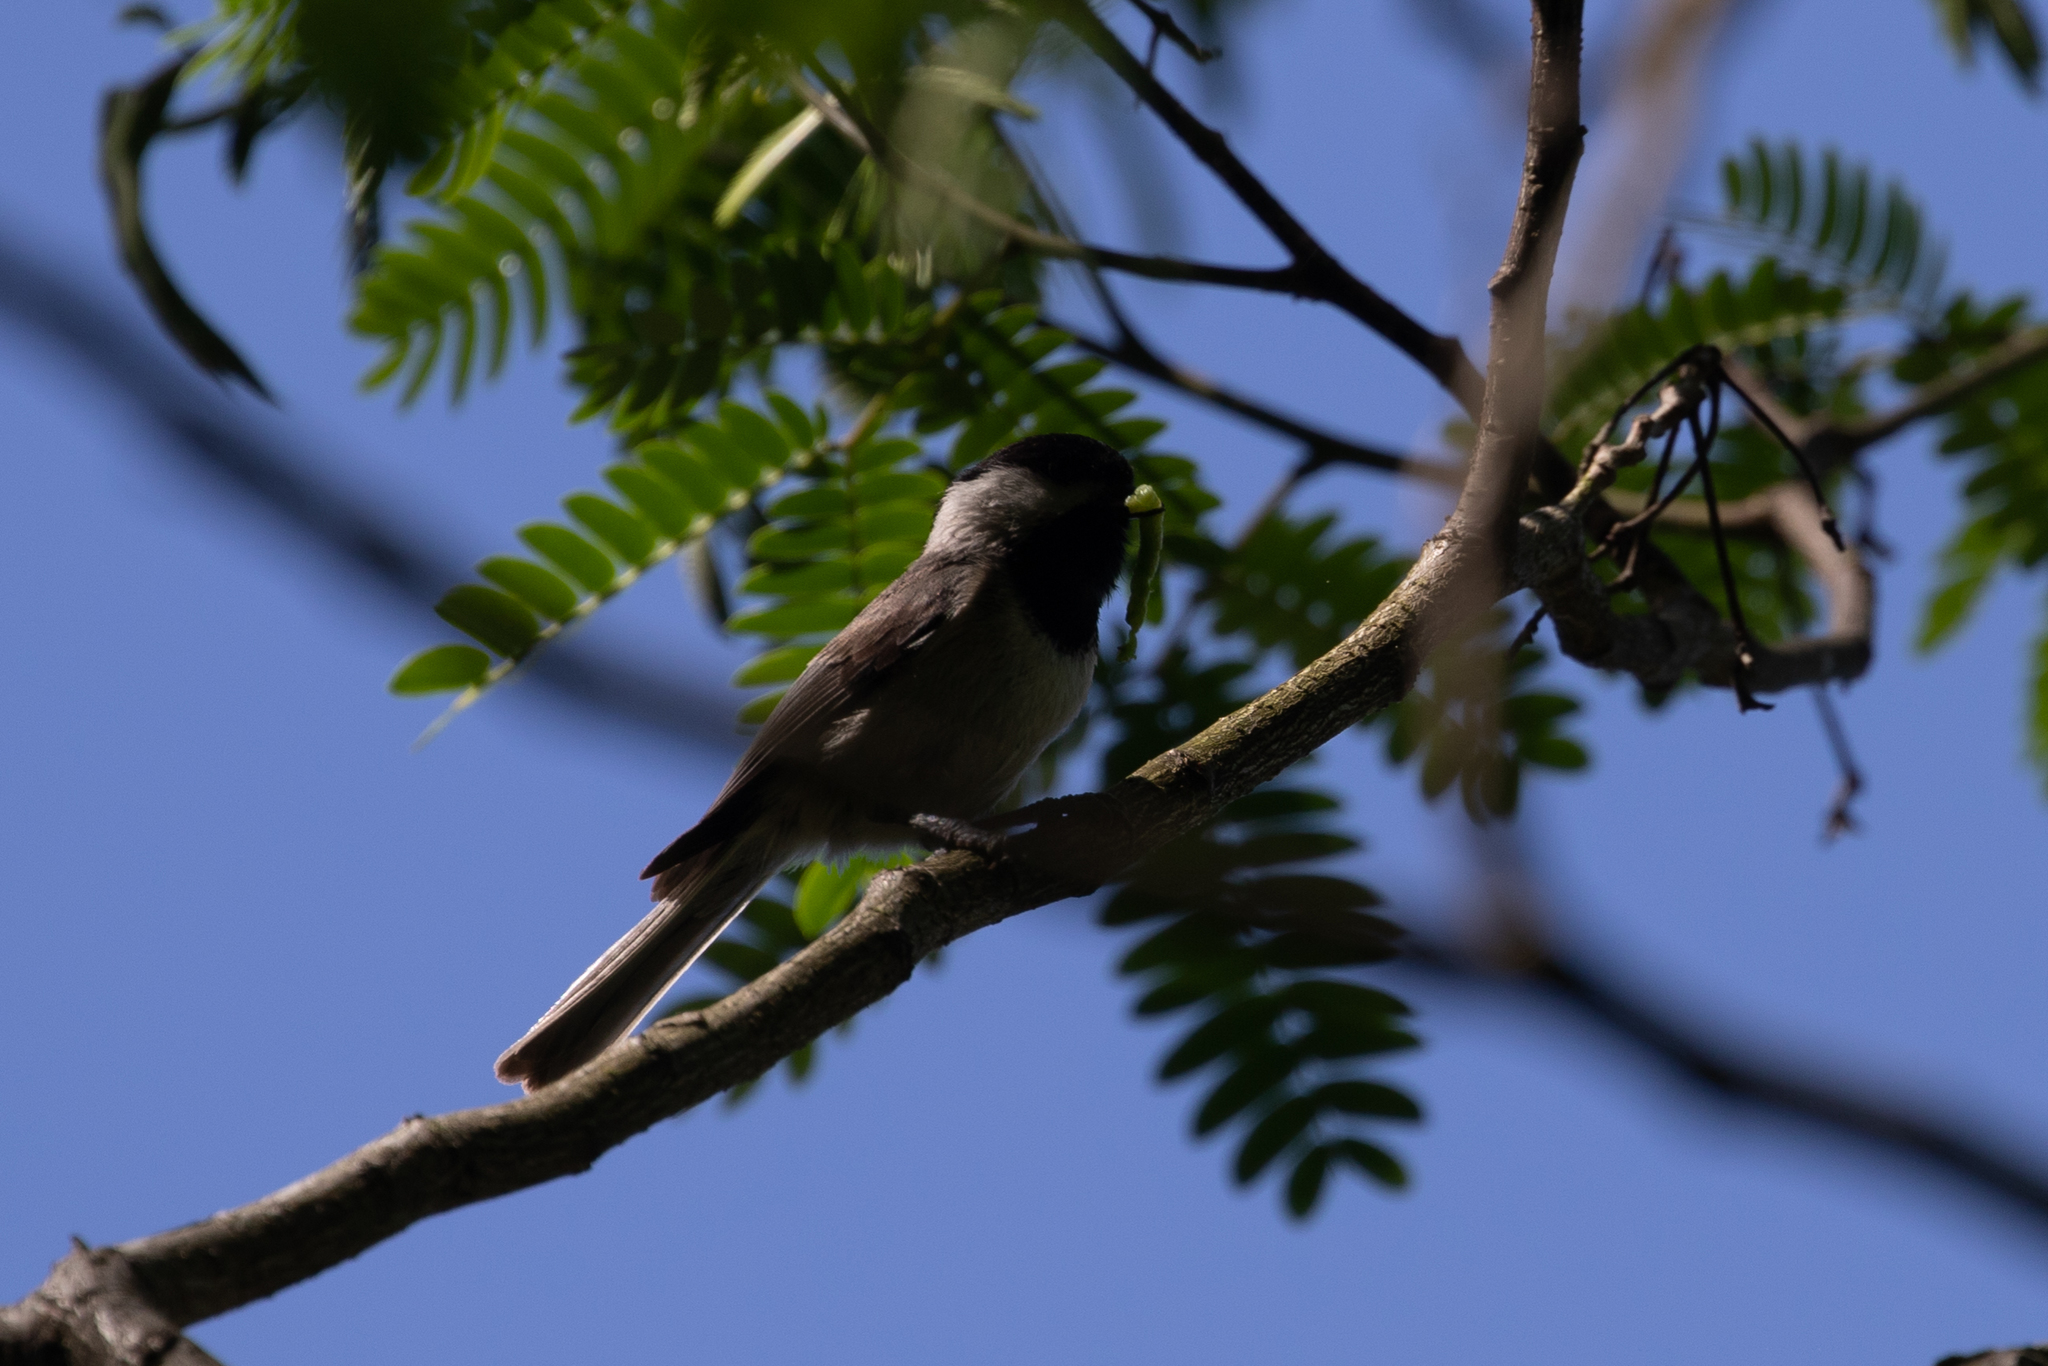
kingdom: Animalia
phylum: Chordata
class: Aves
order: Passeriformes
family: Paridae
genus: Poecile
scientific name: Poecile carolinensis
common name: Carolina chickadee
